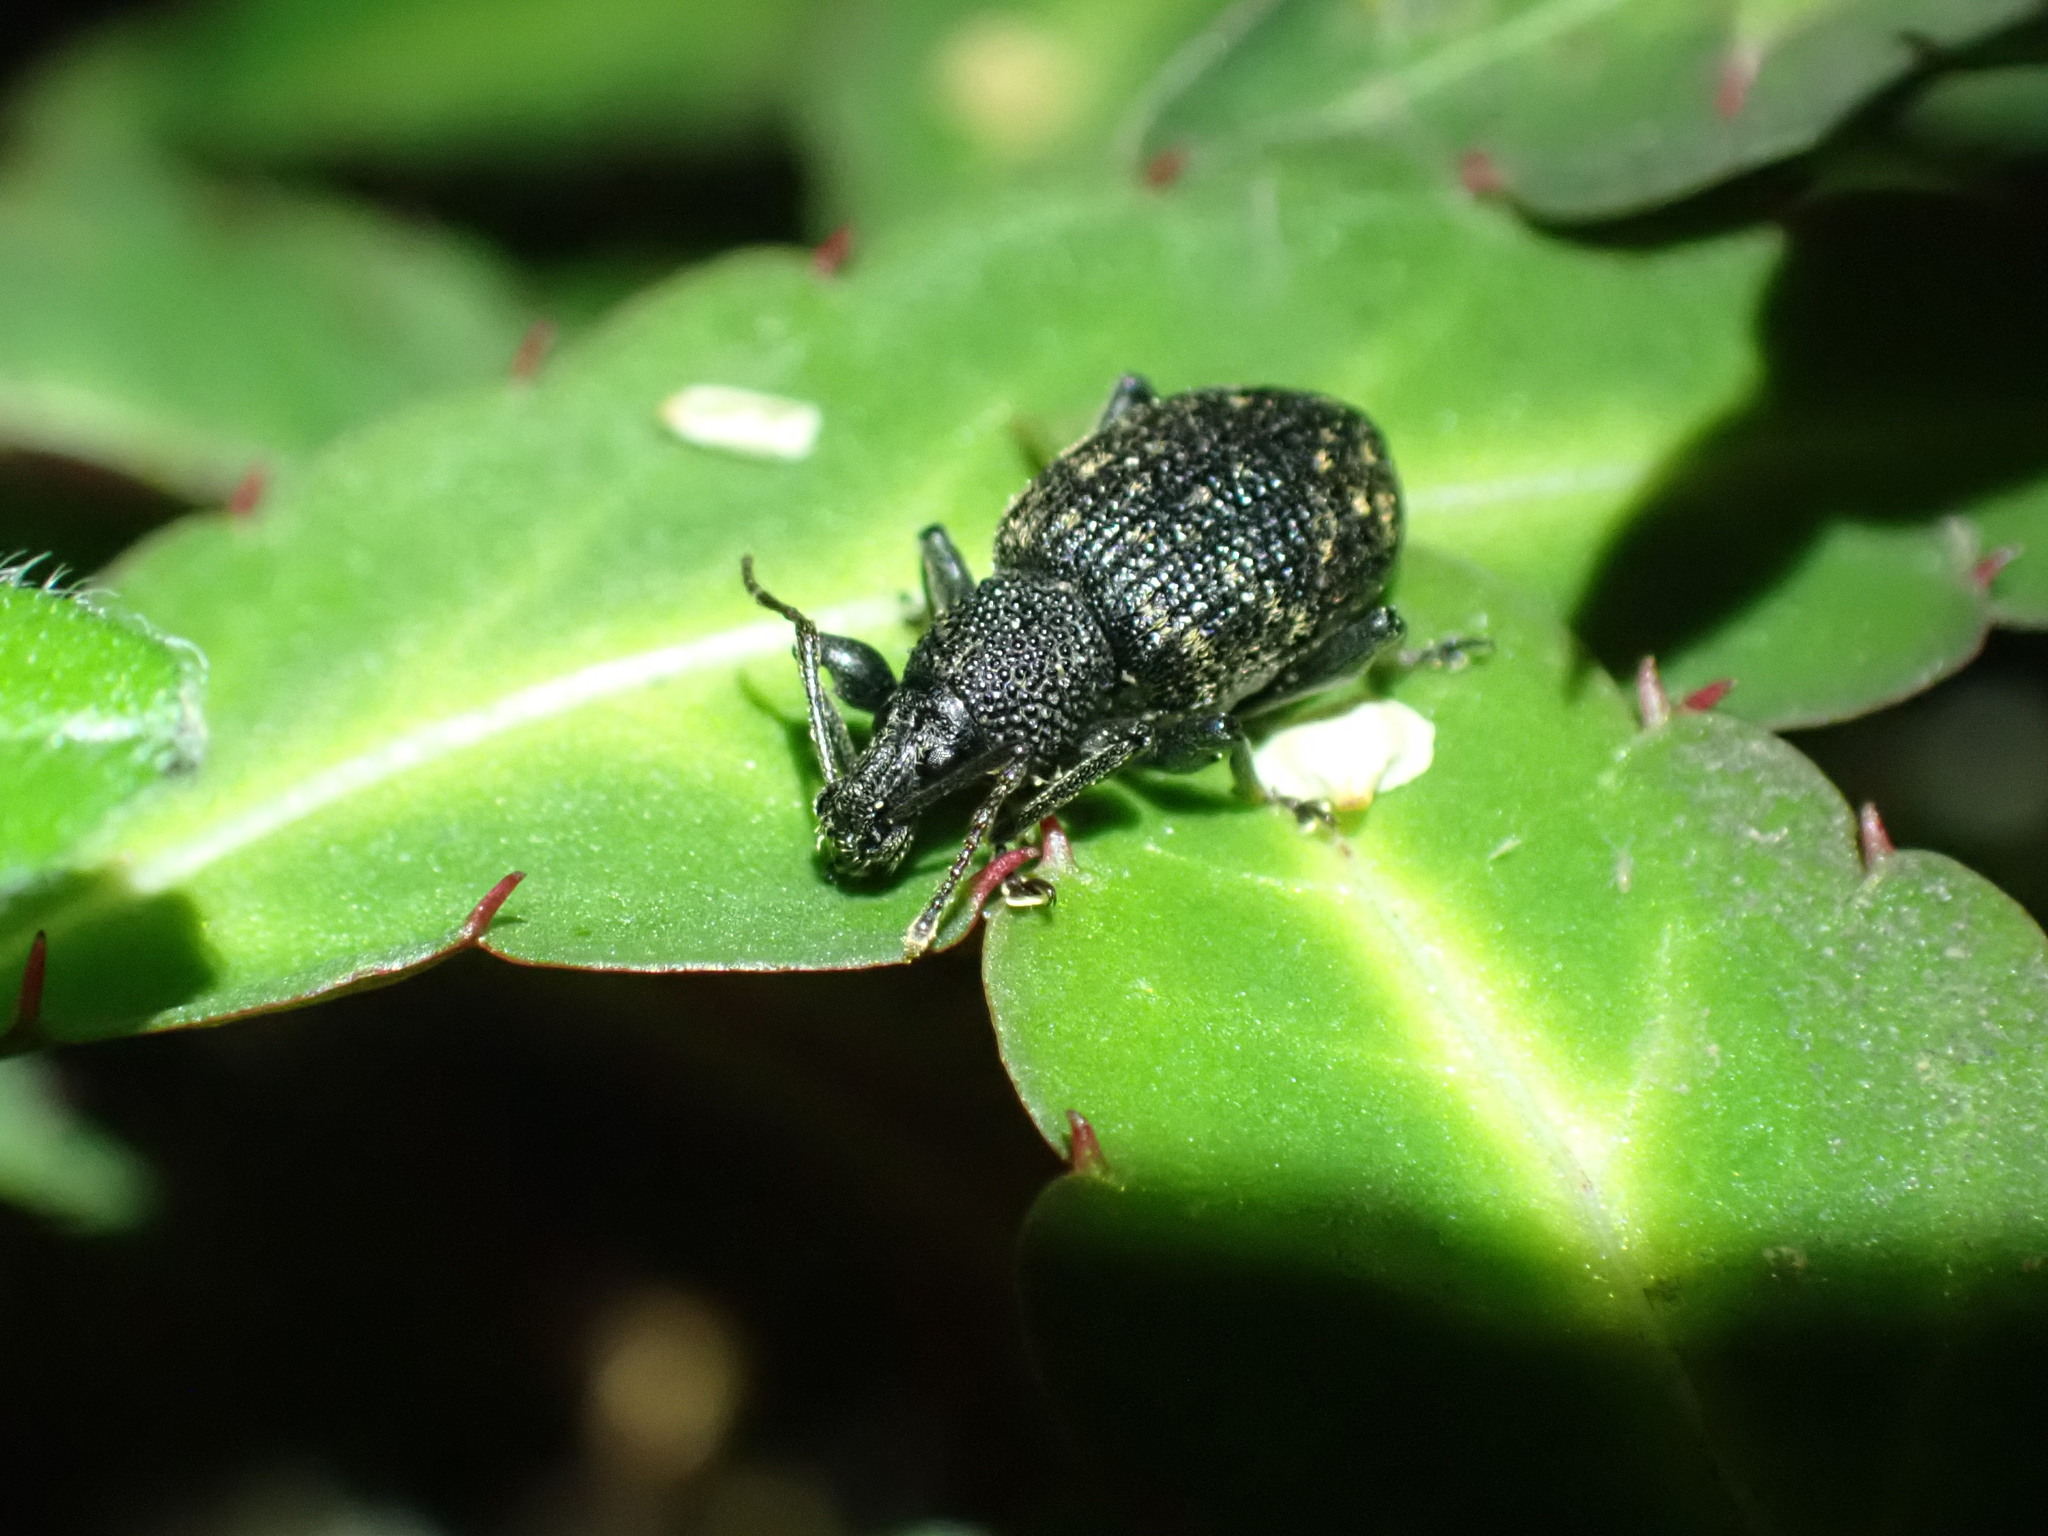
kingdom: Animalia
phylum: Arthropoda
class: Insecta
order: Coleoptera
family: Curculionidae
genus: Otiorhynchus
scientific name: Otiorhynchus sulcatus
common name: Black vine weevil
